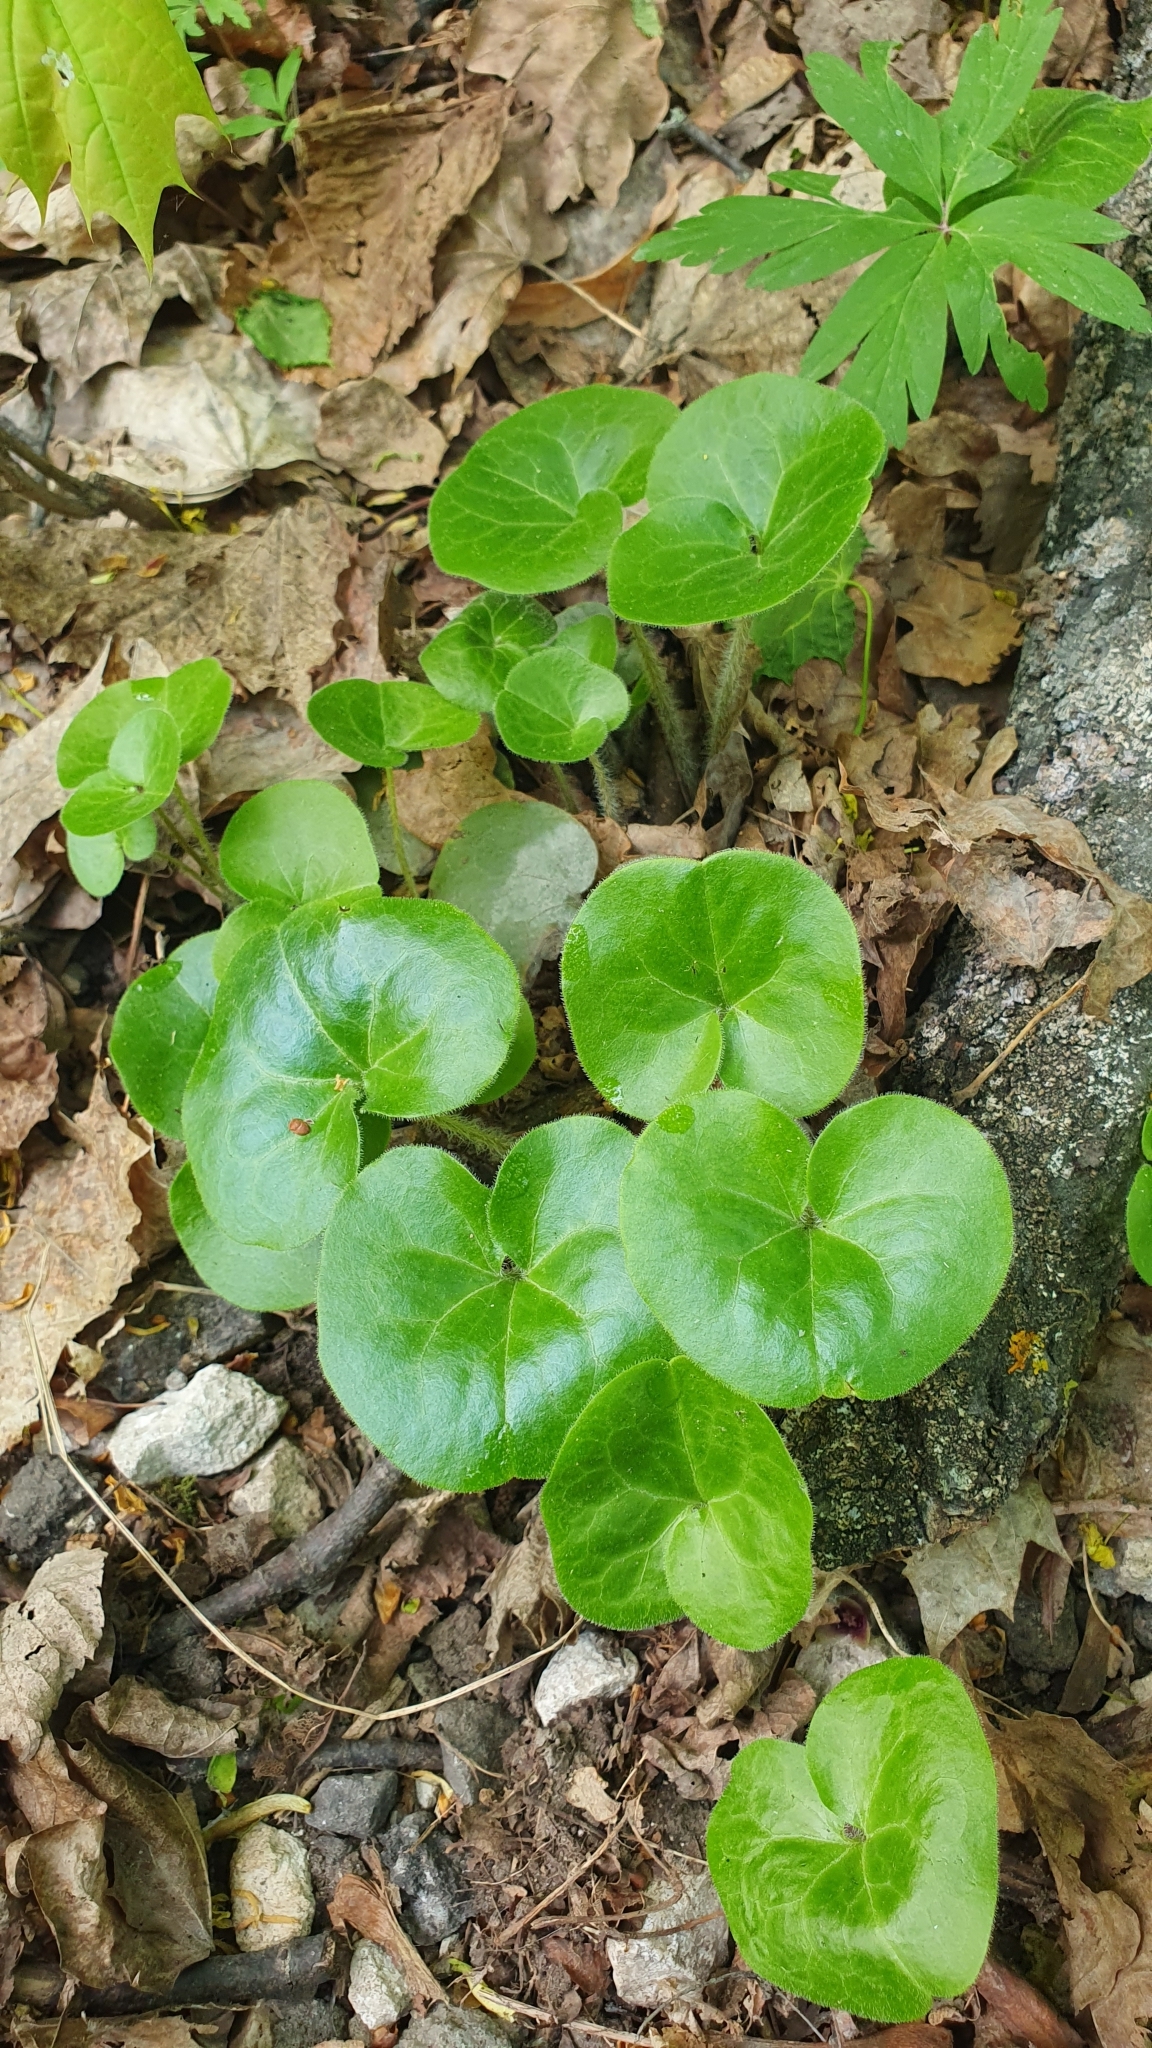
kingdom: Plantae
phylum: Tracheophyta
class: Magnoliopsida
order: Piperales
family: Aristolochiaceae
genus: Asarum
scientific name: Asarum europaeum
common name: Asarabacca
